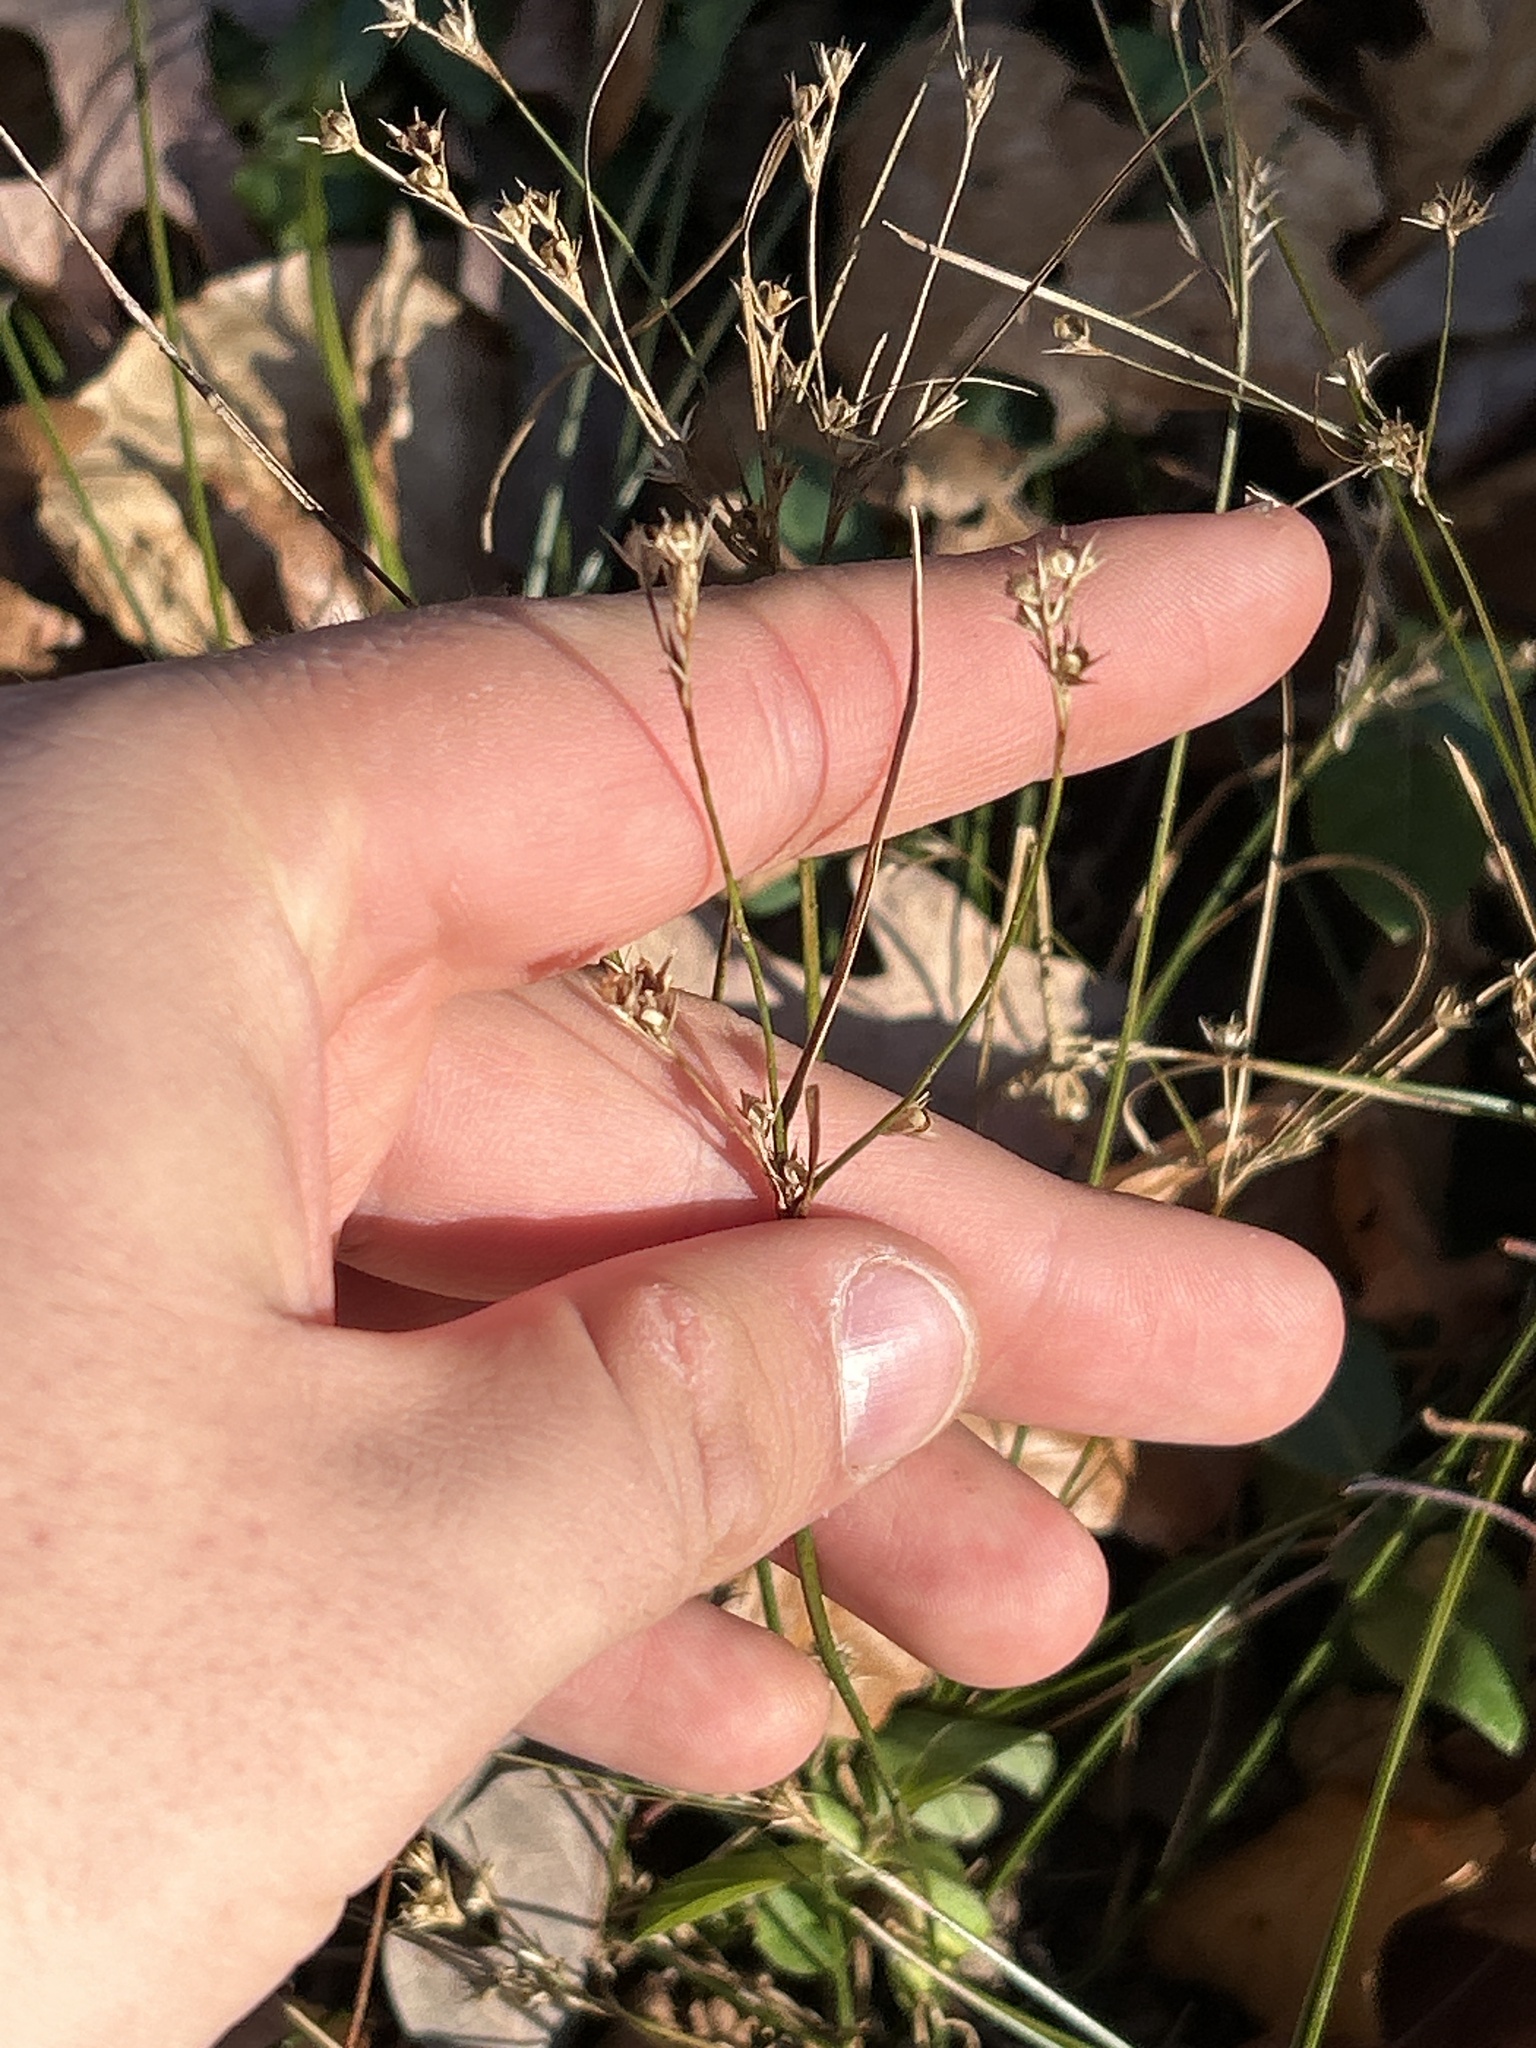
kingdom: Plantae
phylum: Tracheophyta
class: Liliopsida
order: Poales
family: Juncaceae
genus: Juncus
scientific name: Juncus tenuis
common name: Slender rush
